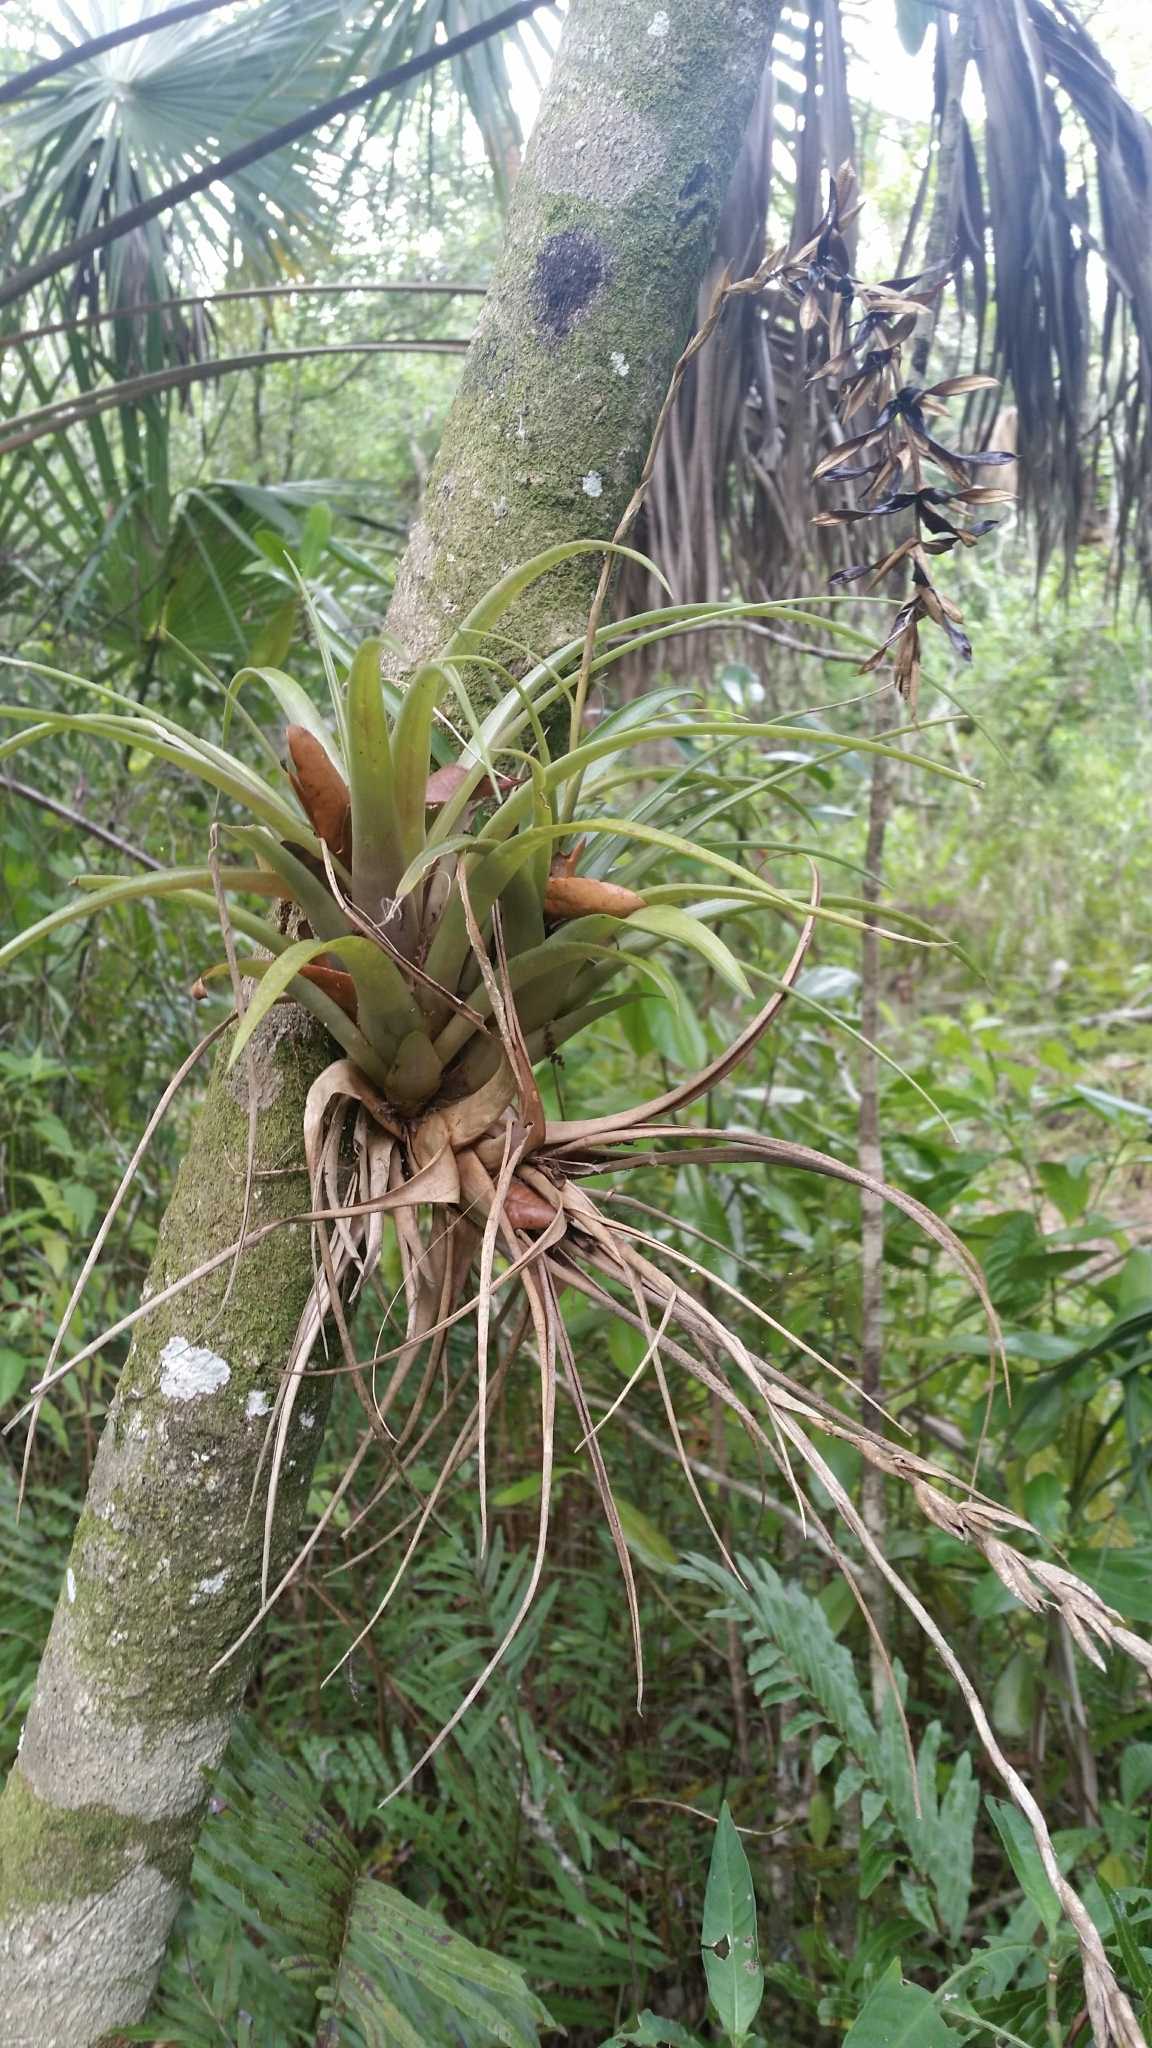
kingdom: Plantae
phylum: Tracheophyta
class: Liliopsida
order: Poales
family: Bromeliaceae
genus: Tillandsia
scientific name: Tillandsia variabilis
